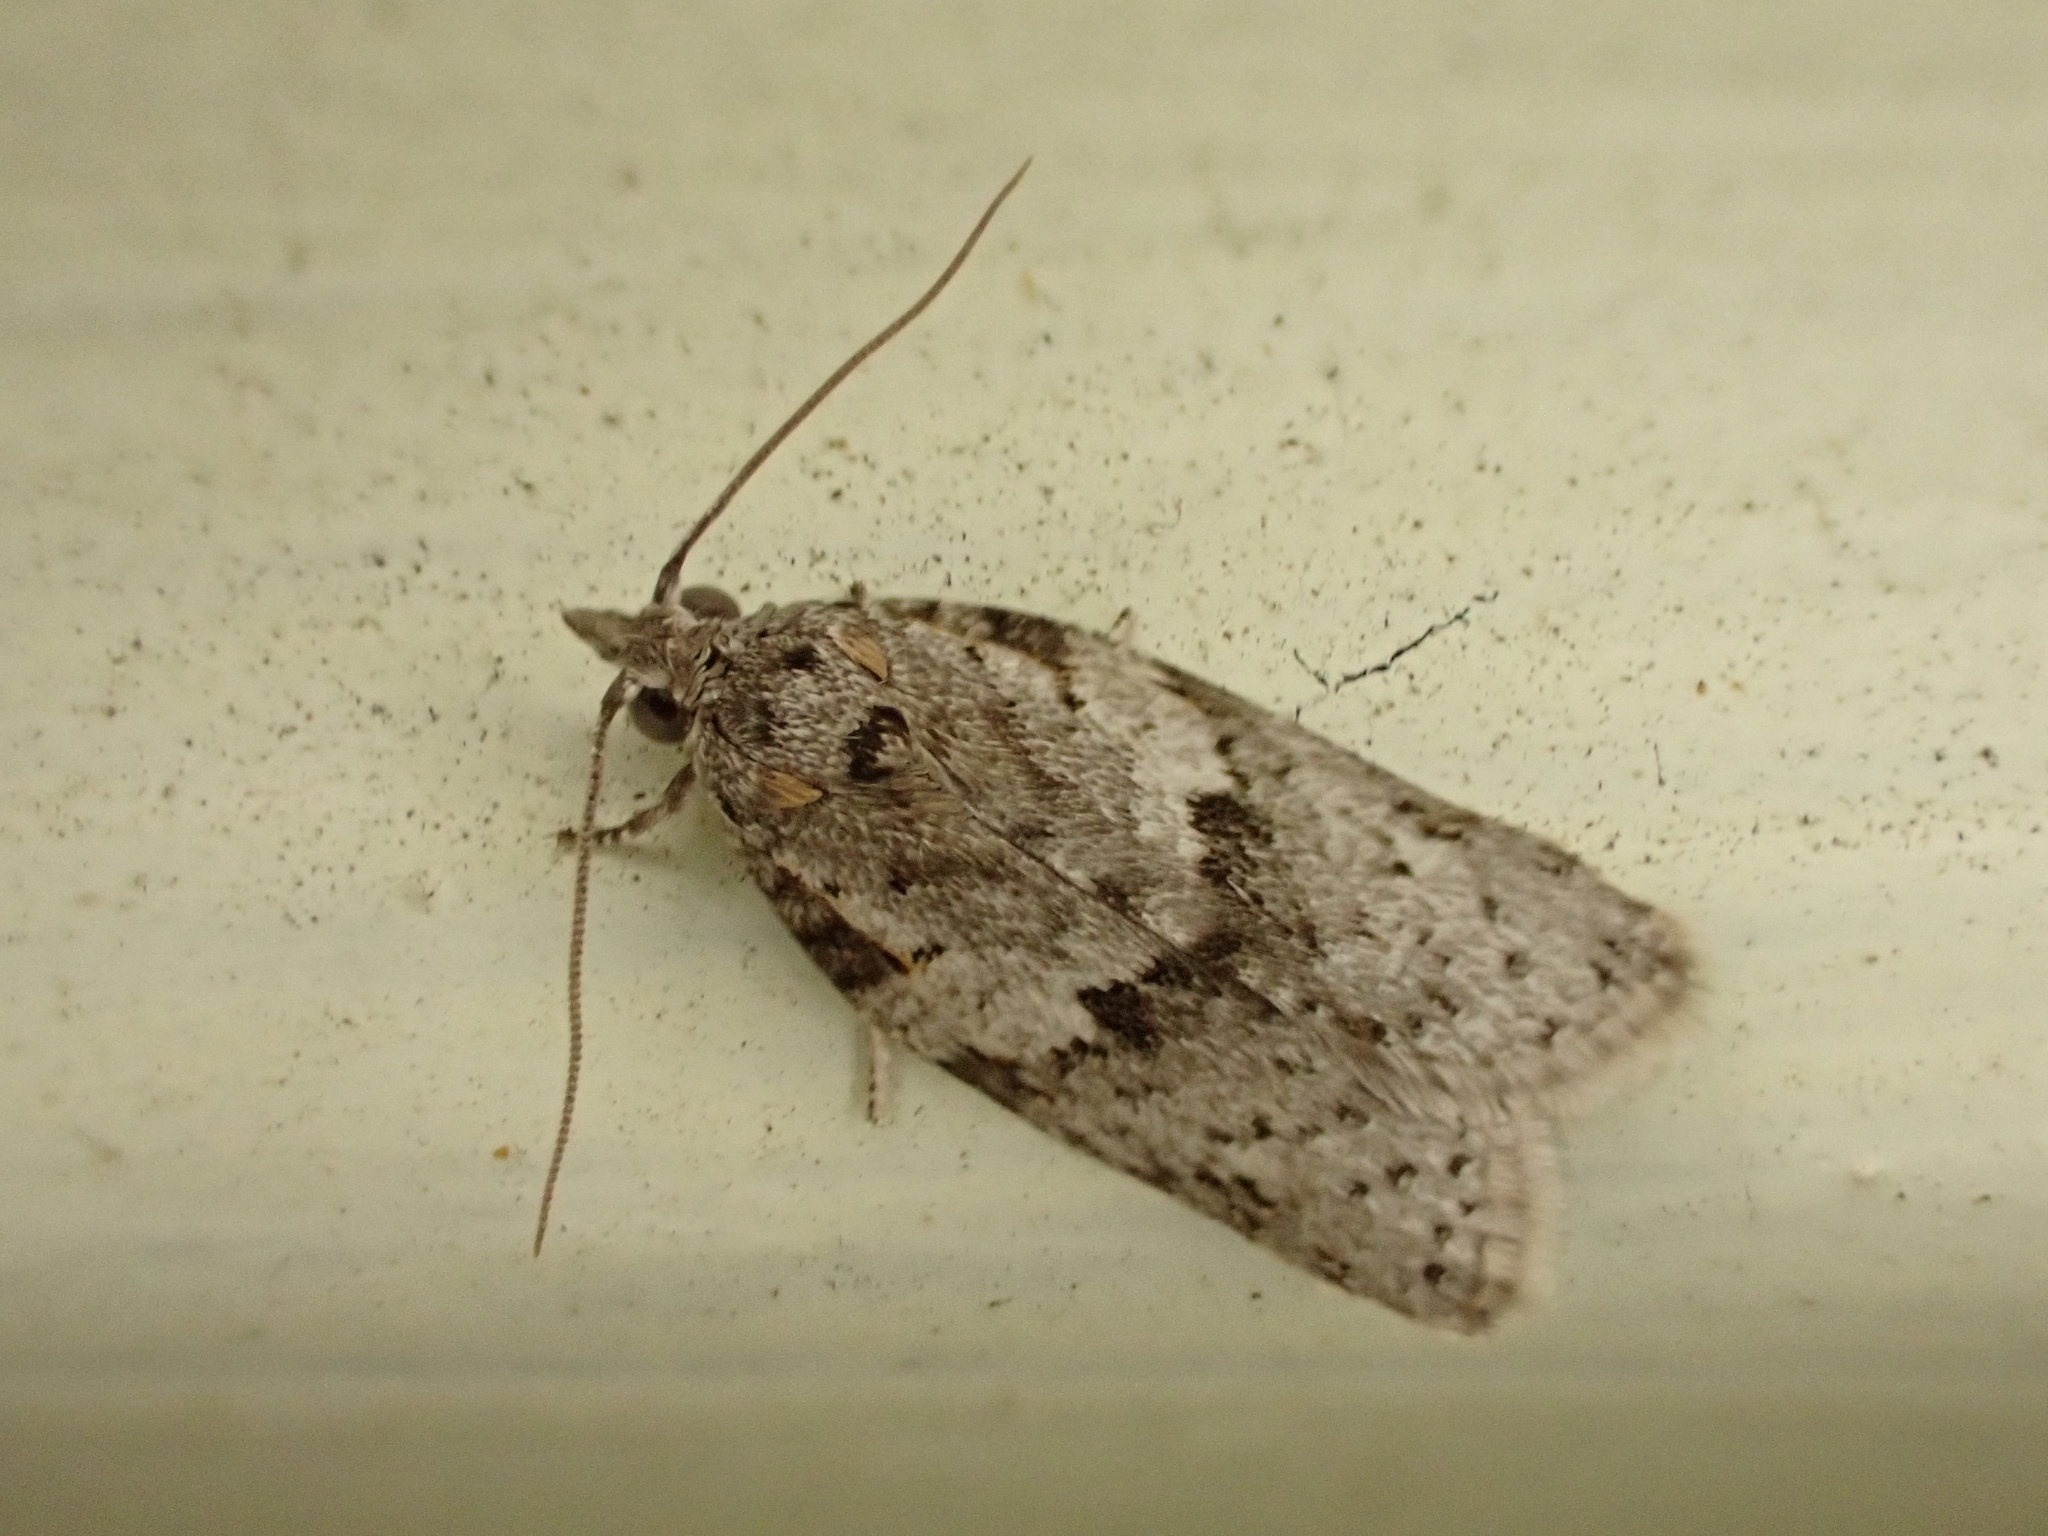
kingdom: Animalia
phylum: Arthropoda
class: Insecta
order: Lepidoptera
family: Tortricidae
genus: Isotenes
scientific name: Isotenes miserana
